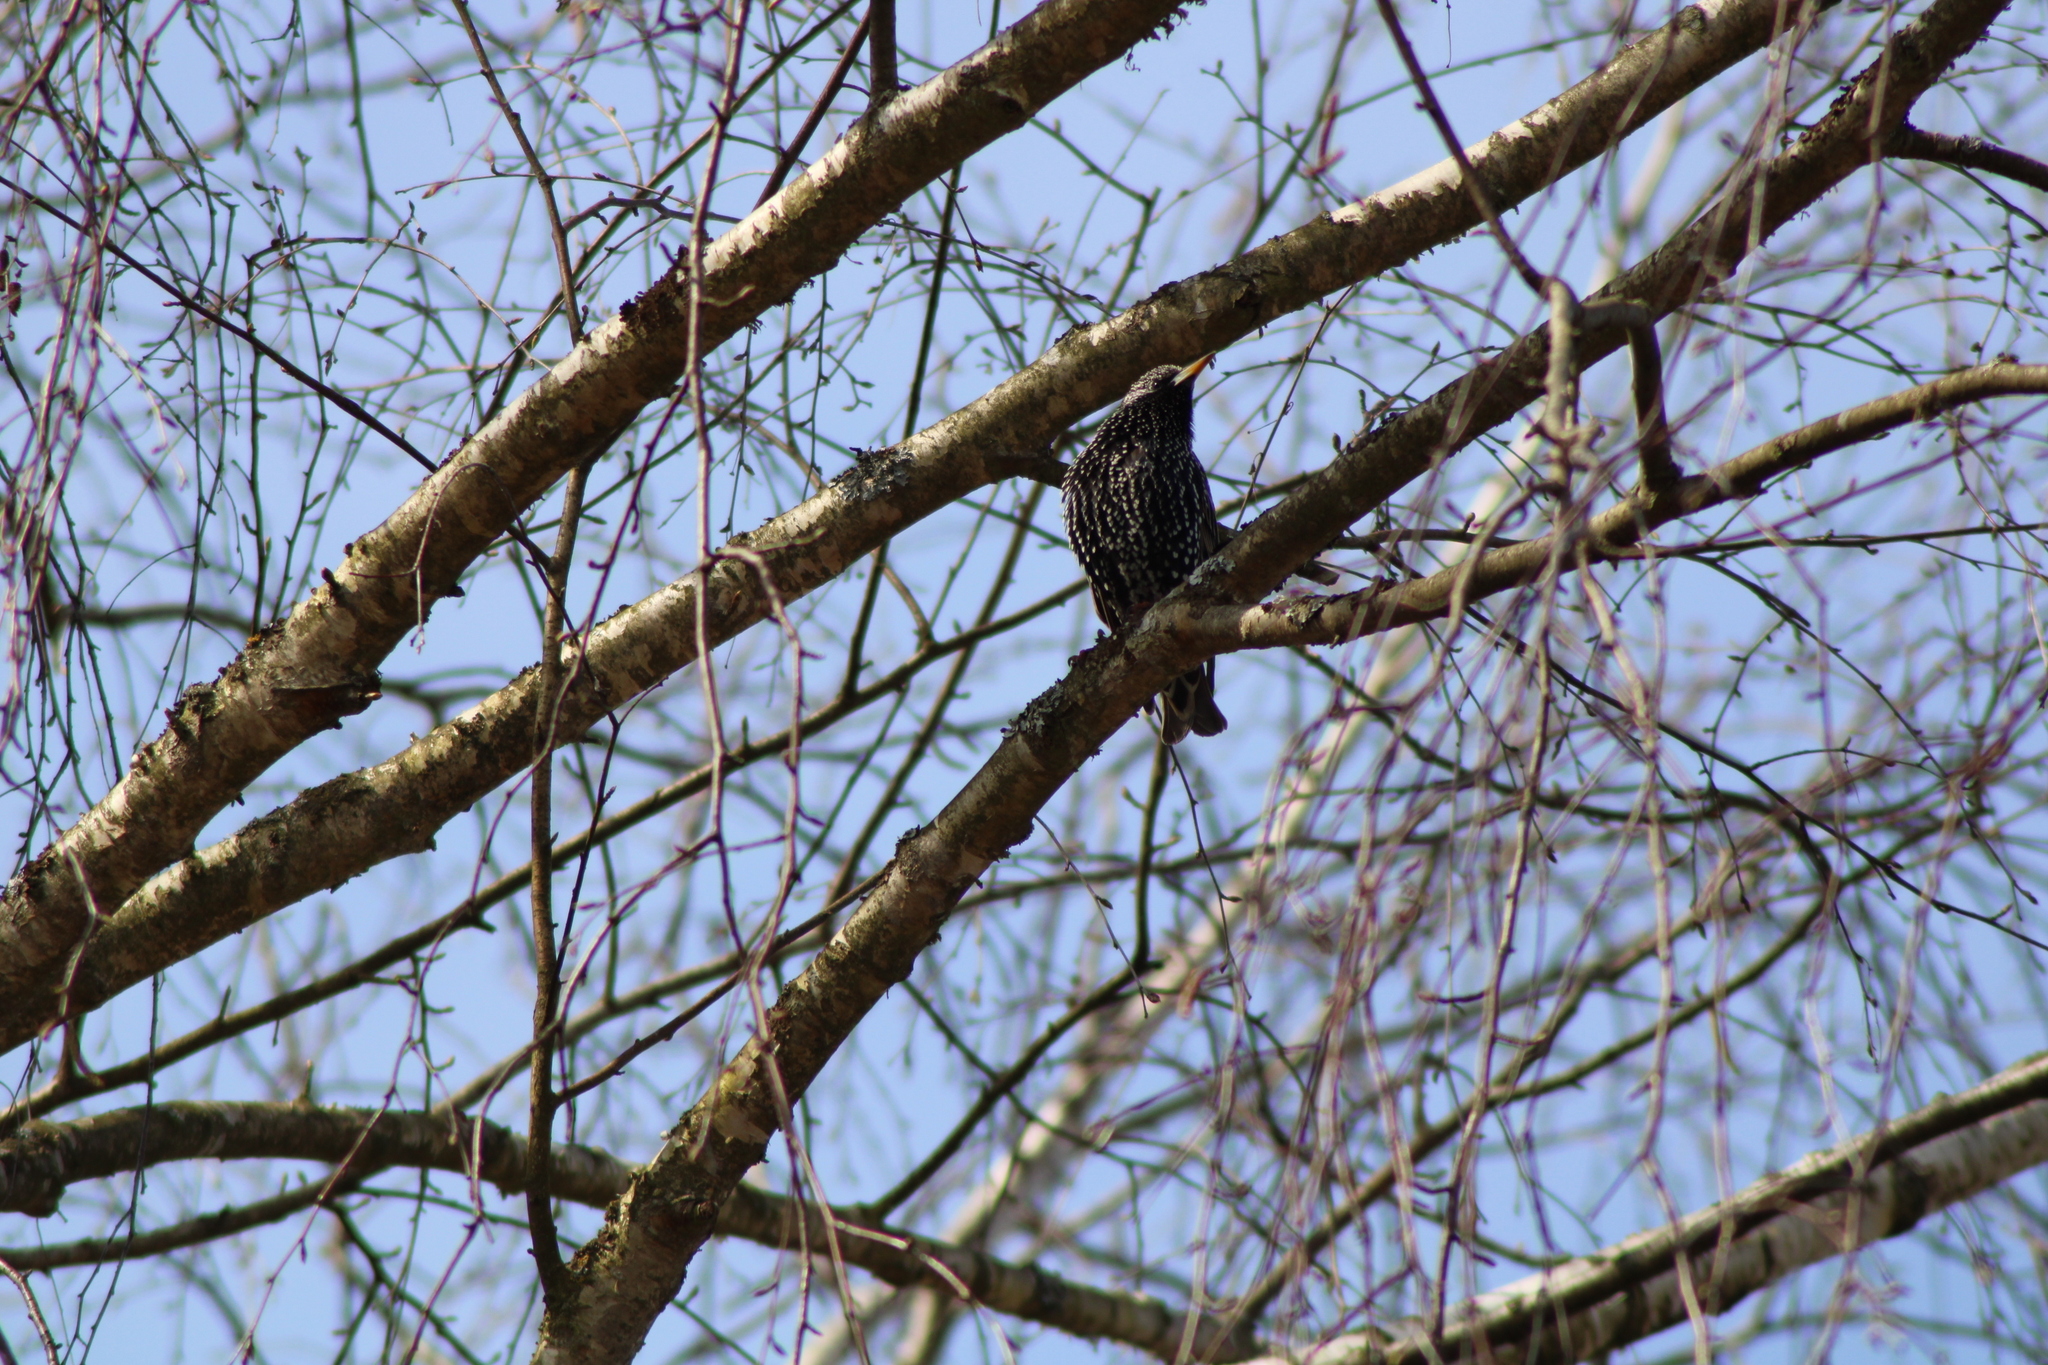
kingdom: Animalia
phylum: Chordata
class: Aves
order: Passeriformes
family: Sturnidae
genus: Sturnus
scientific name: Sturnus vulgaris
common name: Common starling
